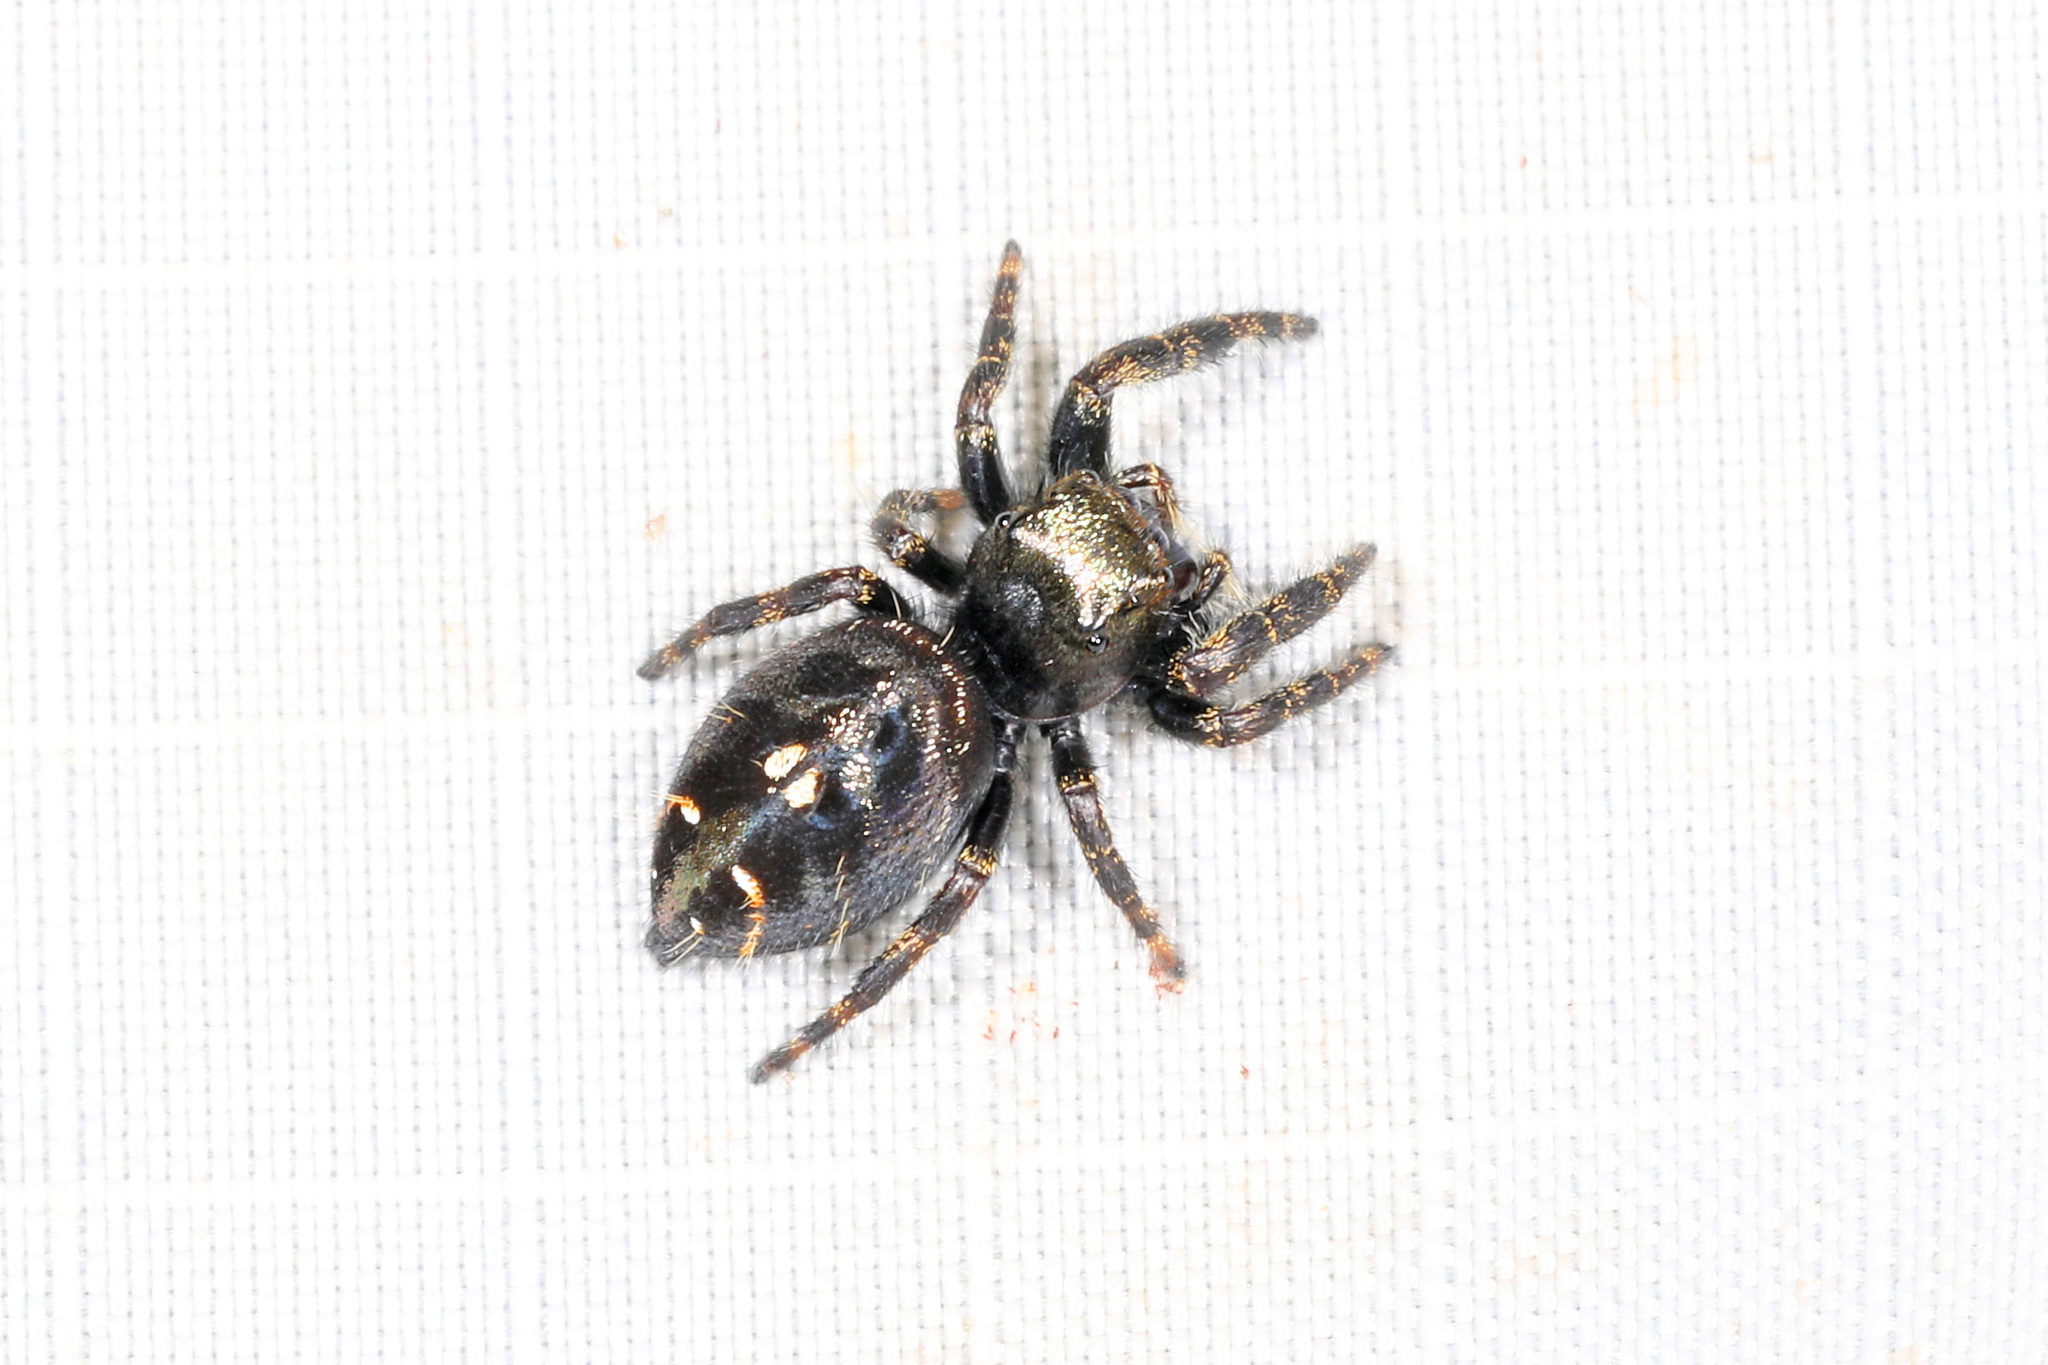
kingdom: Animalia
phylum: Arthropoda
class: Arachnida
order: Araneae
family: Salticidae
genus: Phidippus
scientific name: Phidippus audax
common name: Bold jumper
